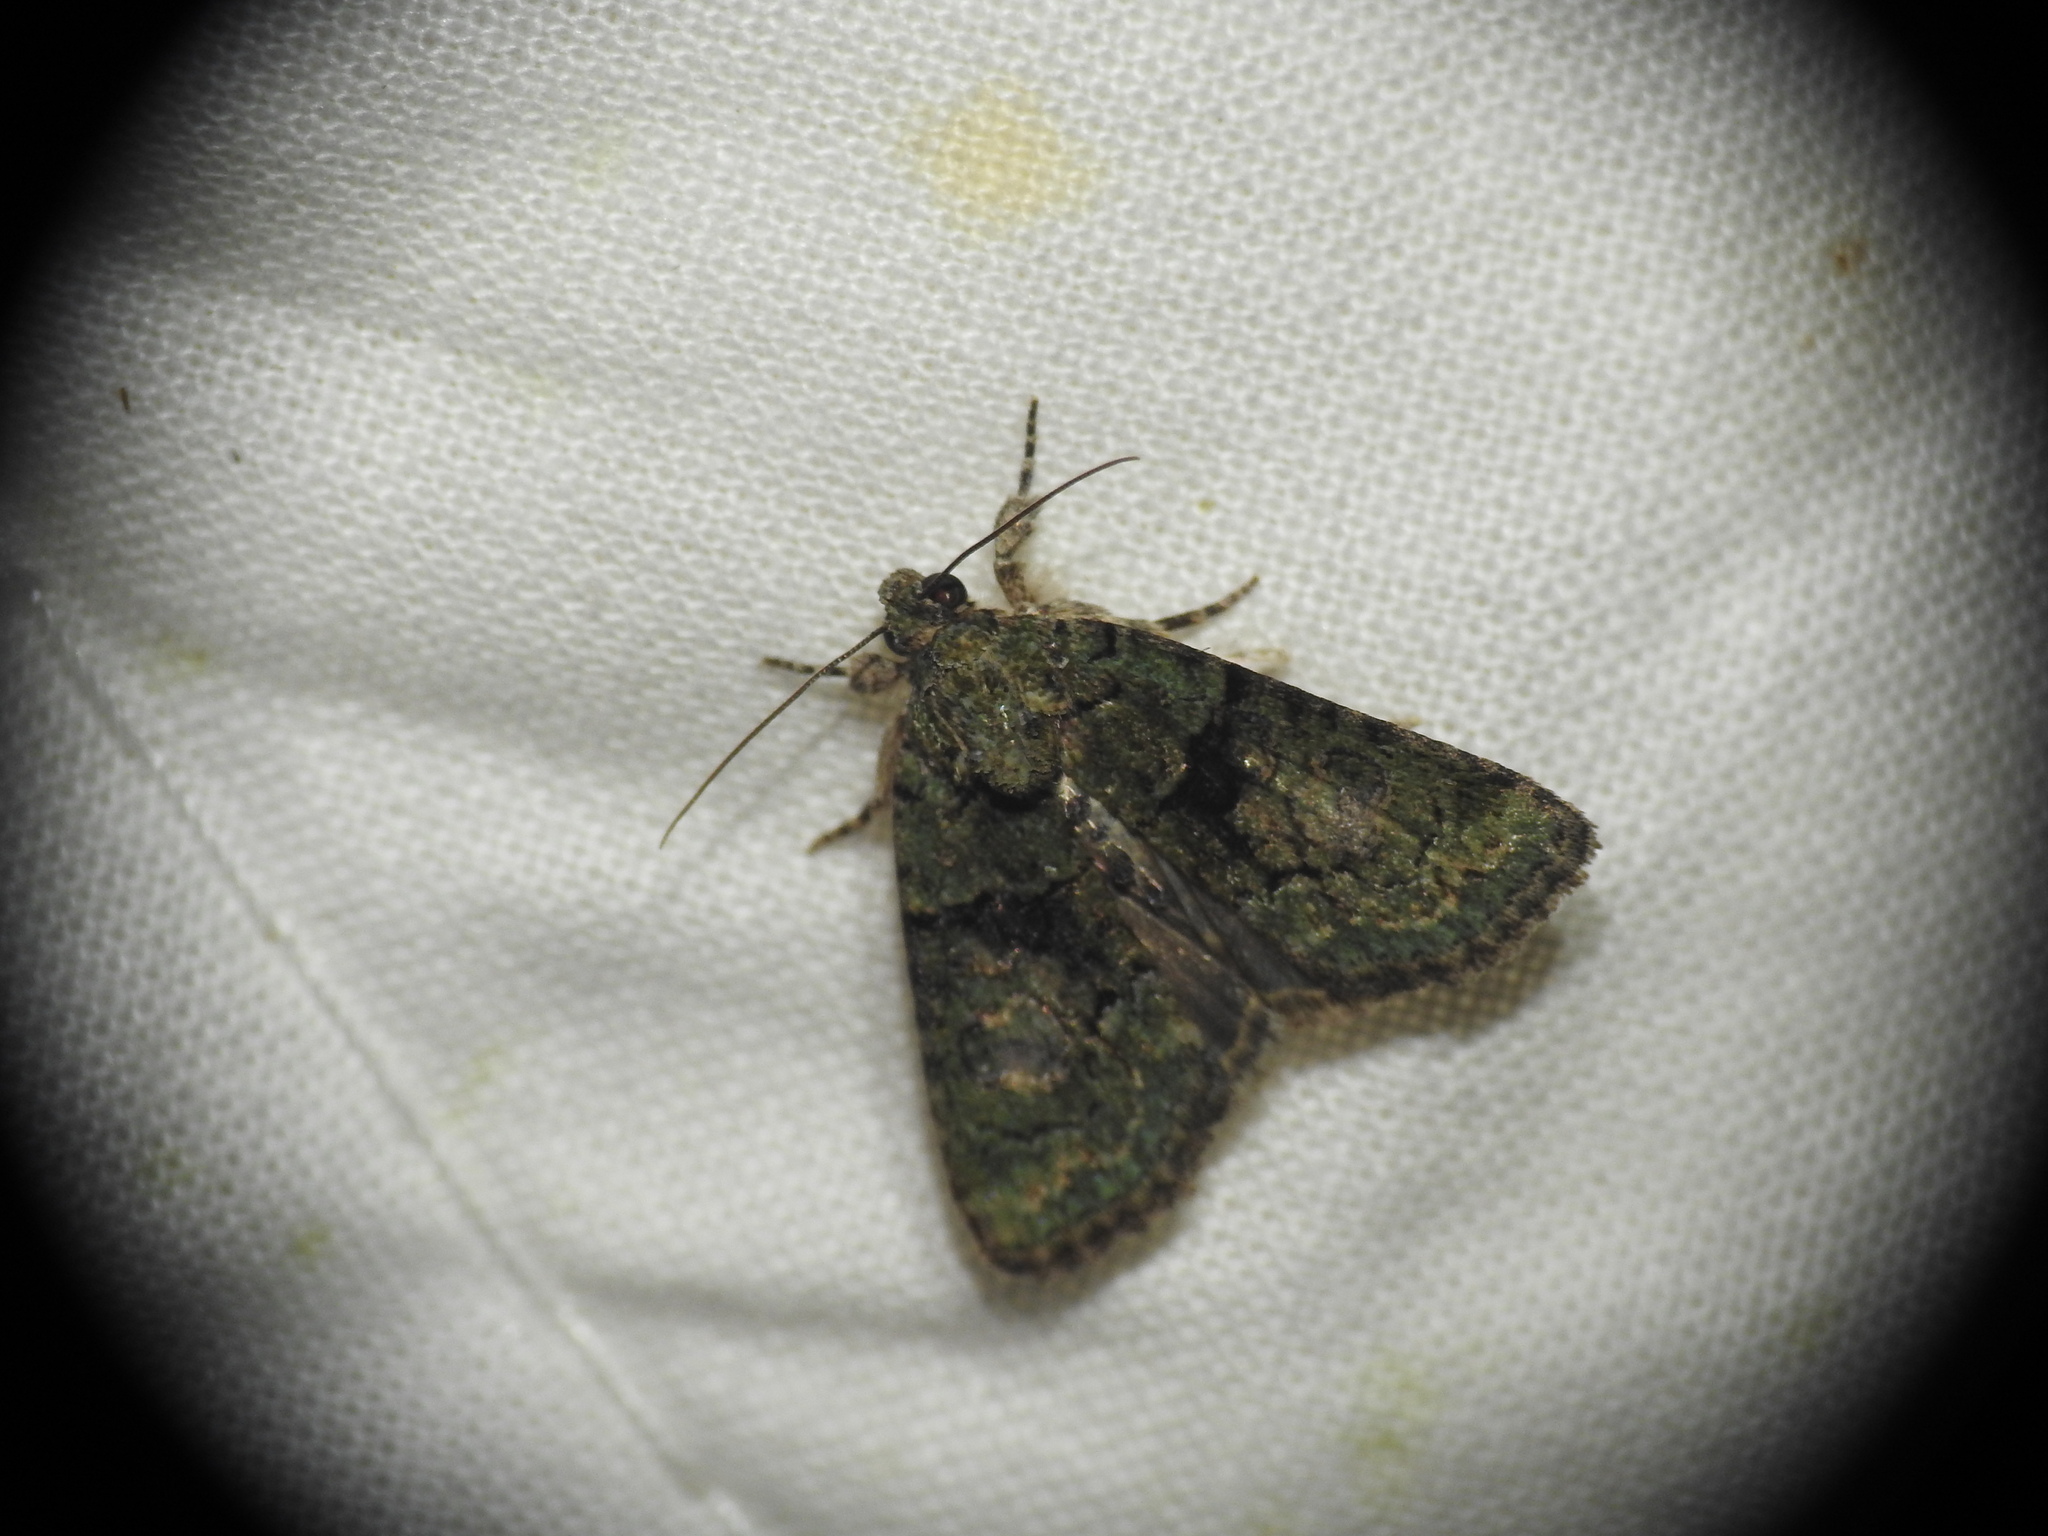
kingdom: Animalia
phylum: Arthropoda
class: Insecta
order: Lepidoptera
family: Noctuidae
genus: Cryphia
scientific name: Cryphia algae
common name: Tree-lichen beauty
